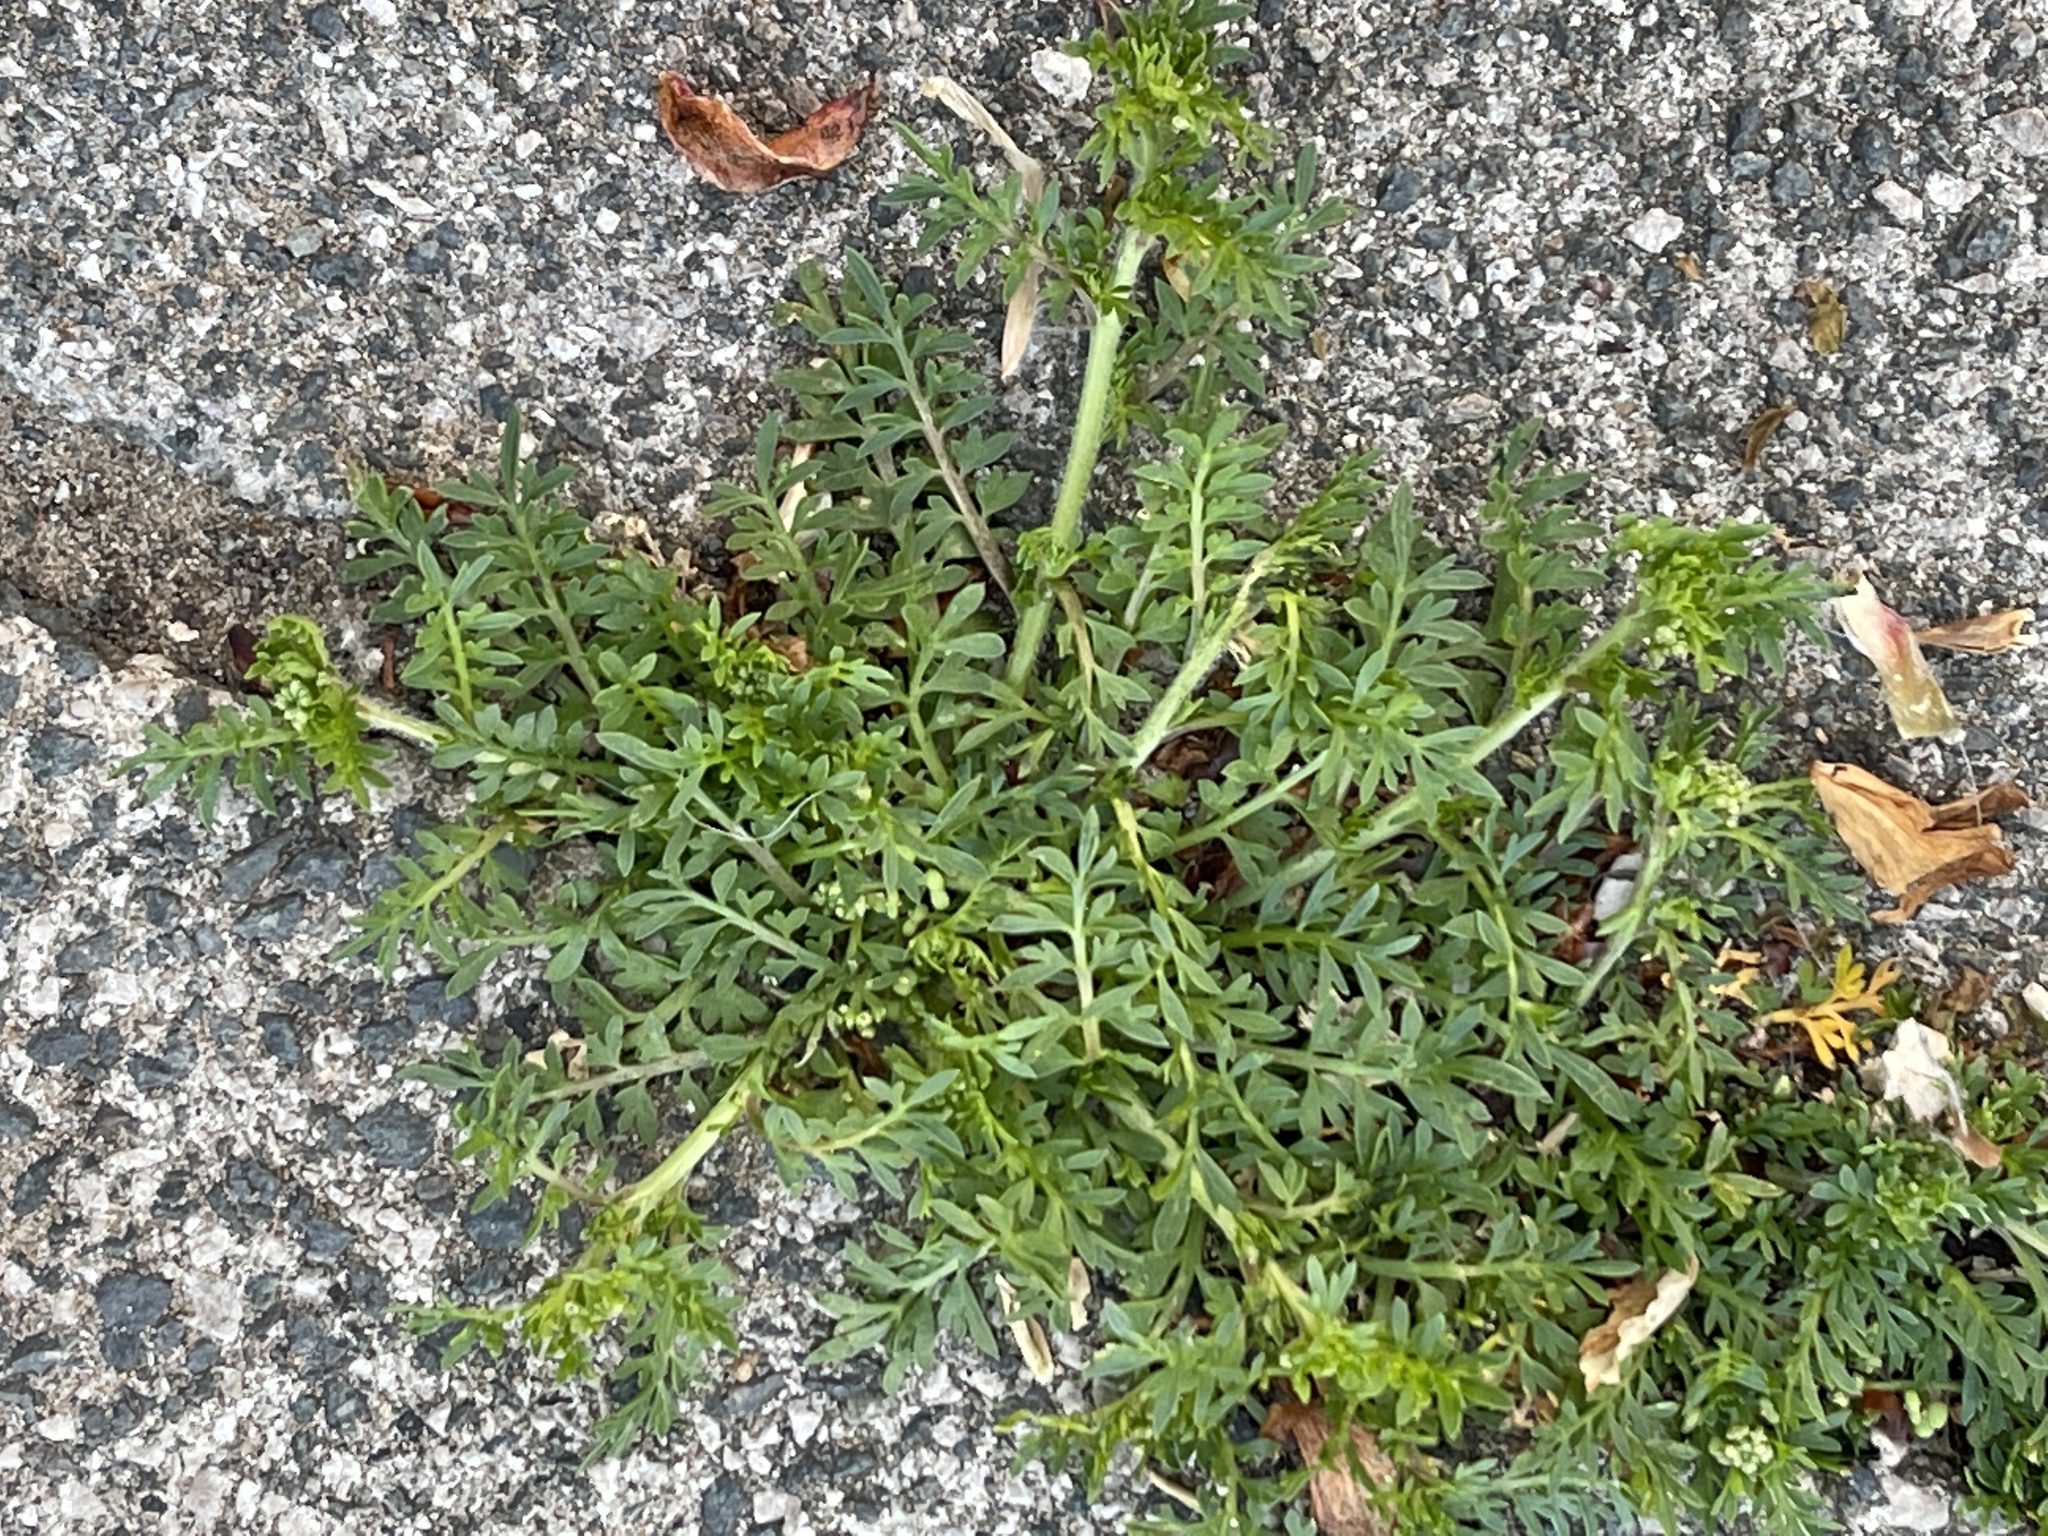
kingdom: Plantae
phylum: Tracheophyta
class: Magnoliopsida
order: Brassicales
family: Brassicaceae
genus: Lepidium
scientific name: Lepidium didymum
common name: Lesser swinecress
